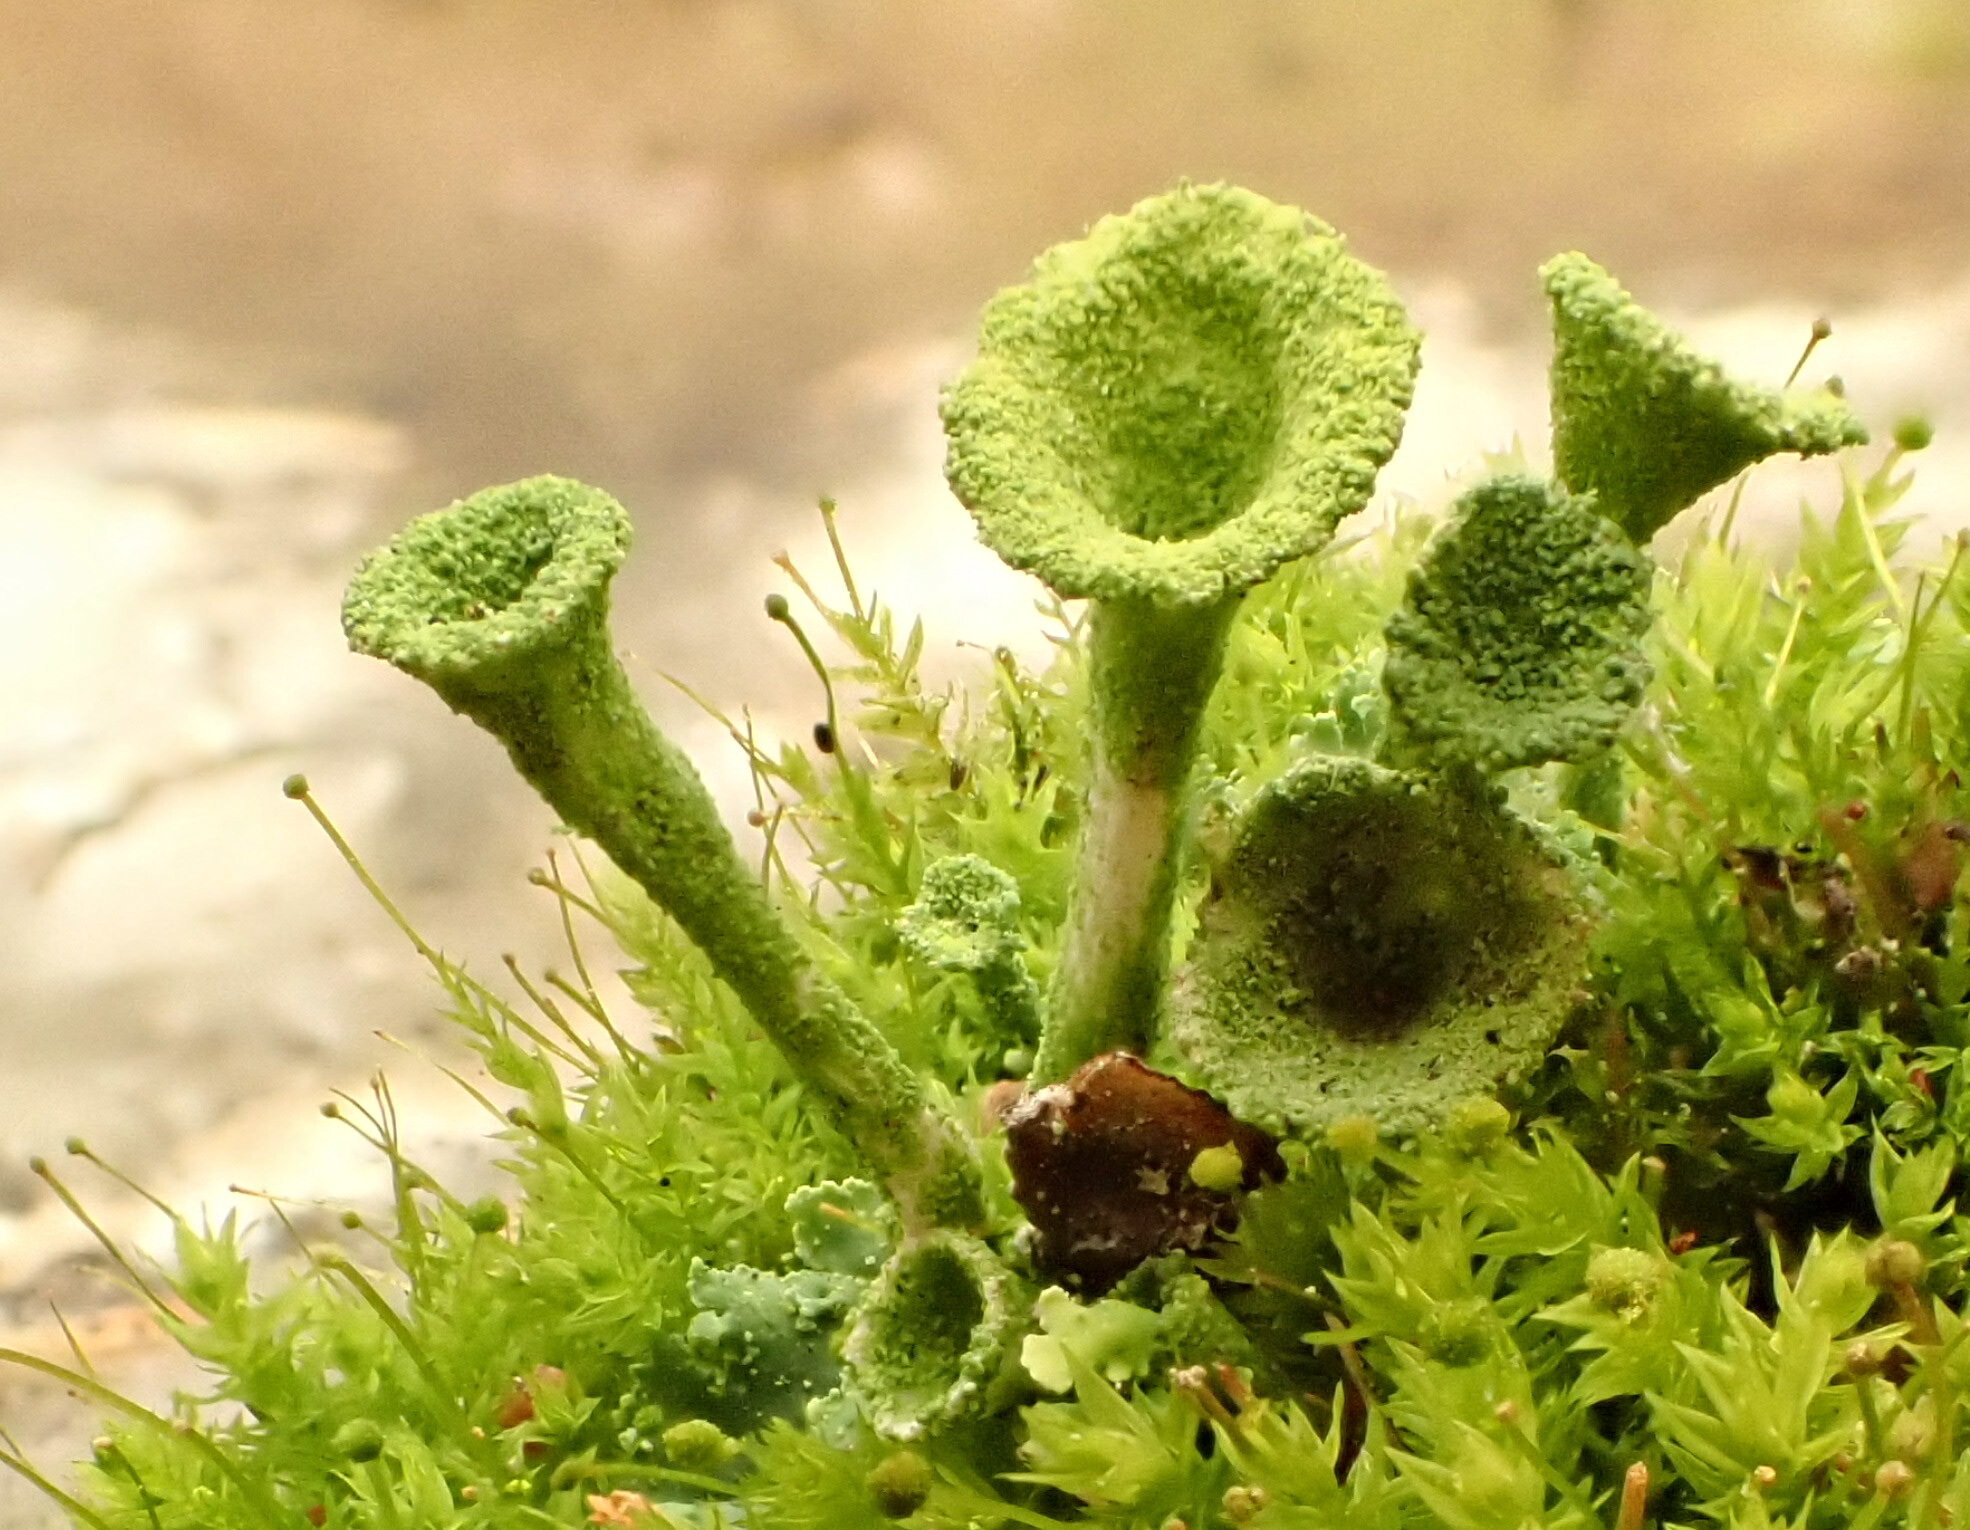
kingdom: Fungi
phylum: Ascomycota
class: Lecanoromycetes
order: Lecanorales
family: Cladoniaceae
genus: Cladonia
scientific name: Cladonia fimbriata
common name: Powdered trumpet lichen
